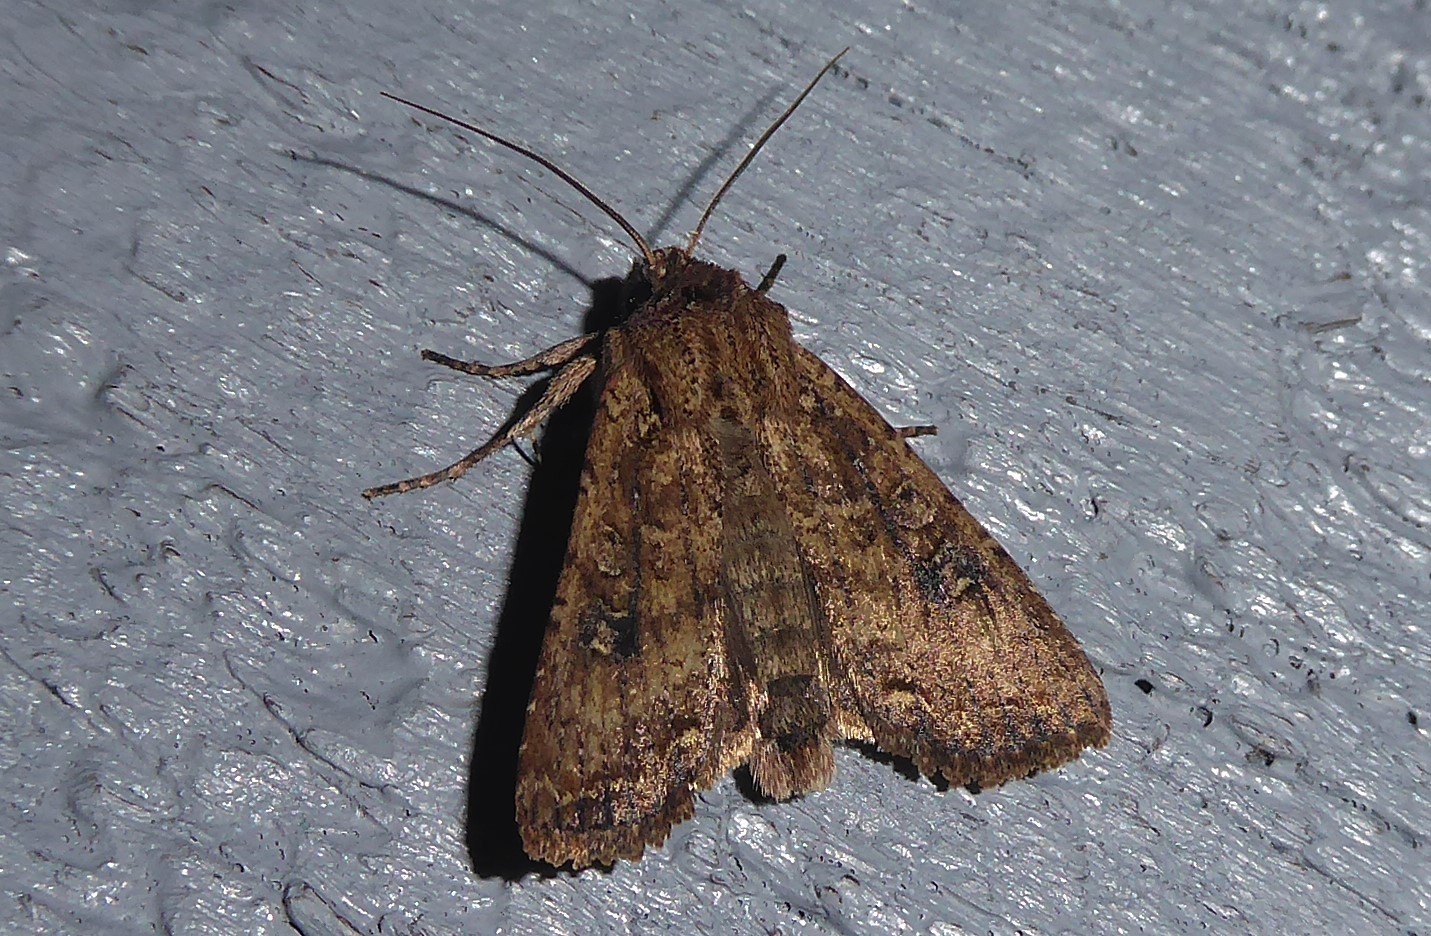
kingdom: Animalia
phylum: Arthropoda
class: Insecta
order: Lepidoptera
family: Noctuidae
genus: Ichneutica
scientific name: Ichneutica morosa
